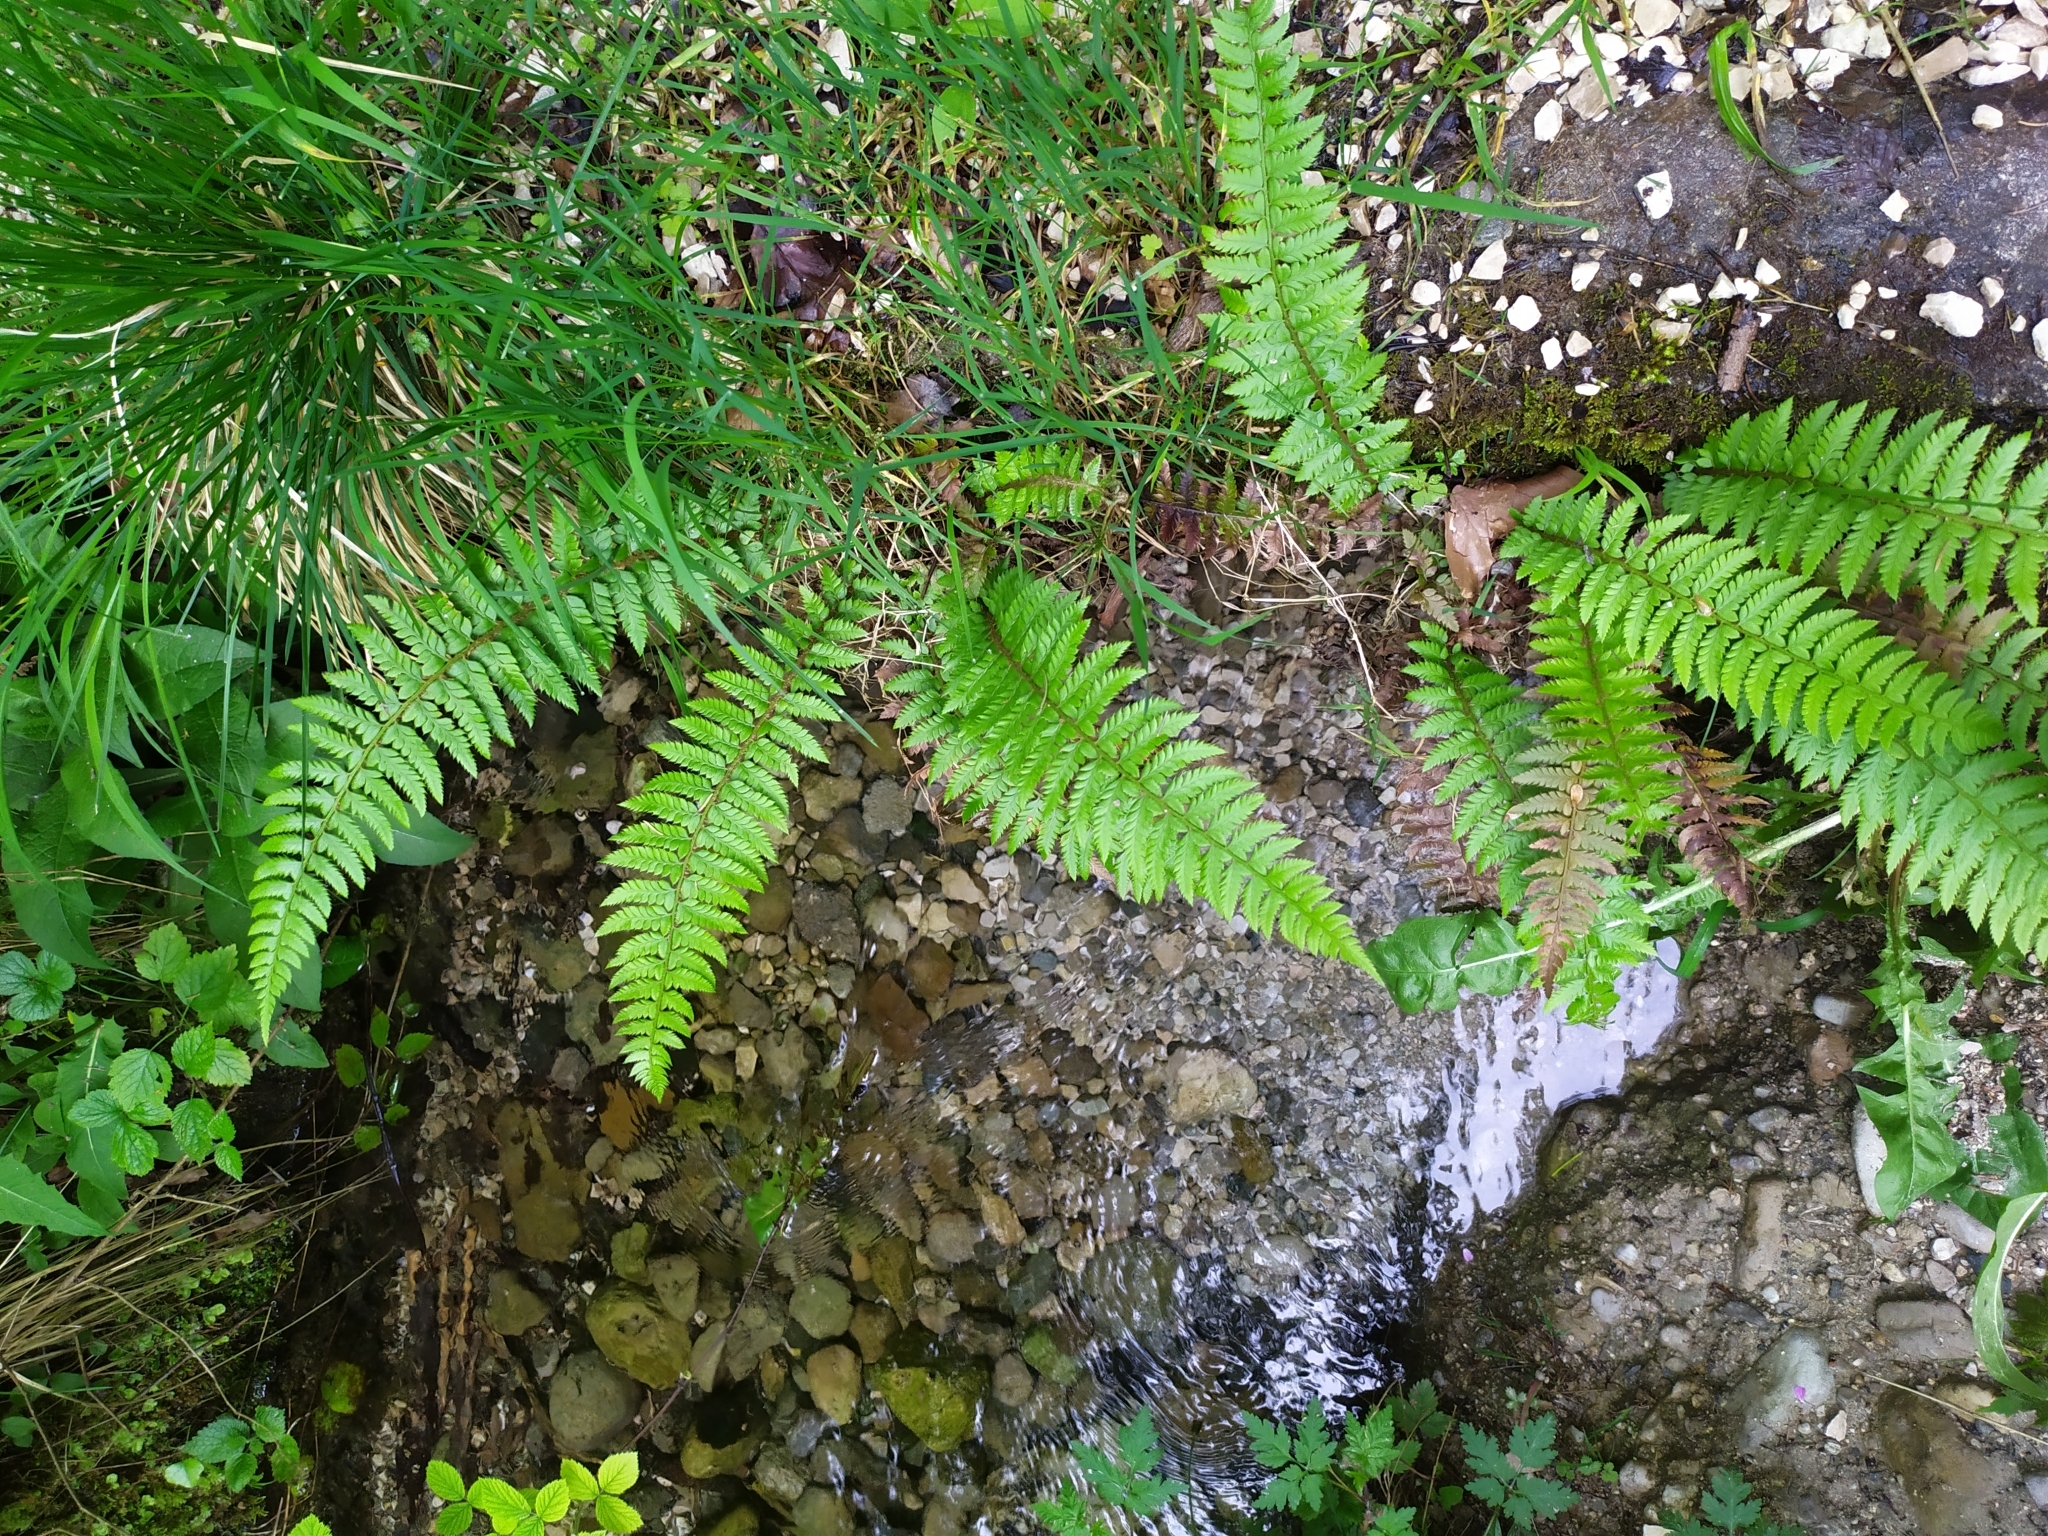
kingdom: Plantae
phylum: Tracheophyta
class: Polypodiopsida
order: Polypodiales
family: Dryopteridaceae
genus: Polystichum
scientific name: Polystichum aculeatum
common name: Hard shield-fern
